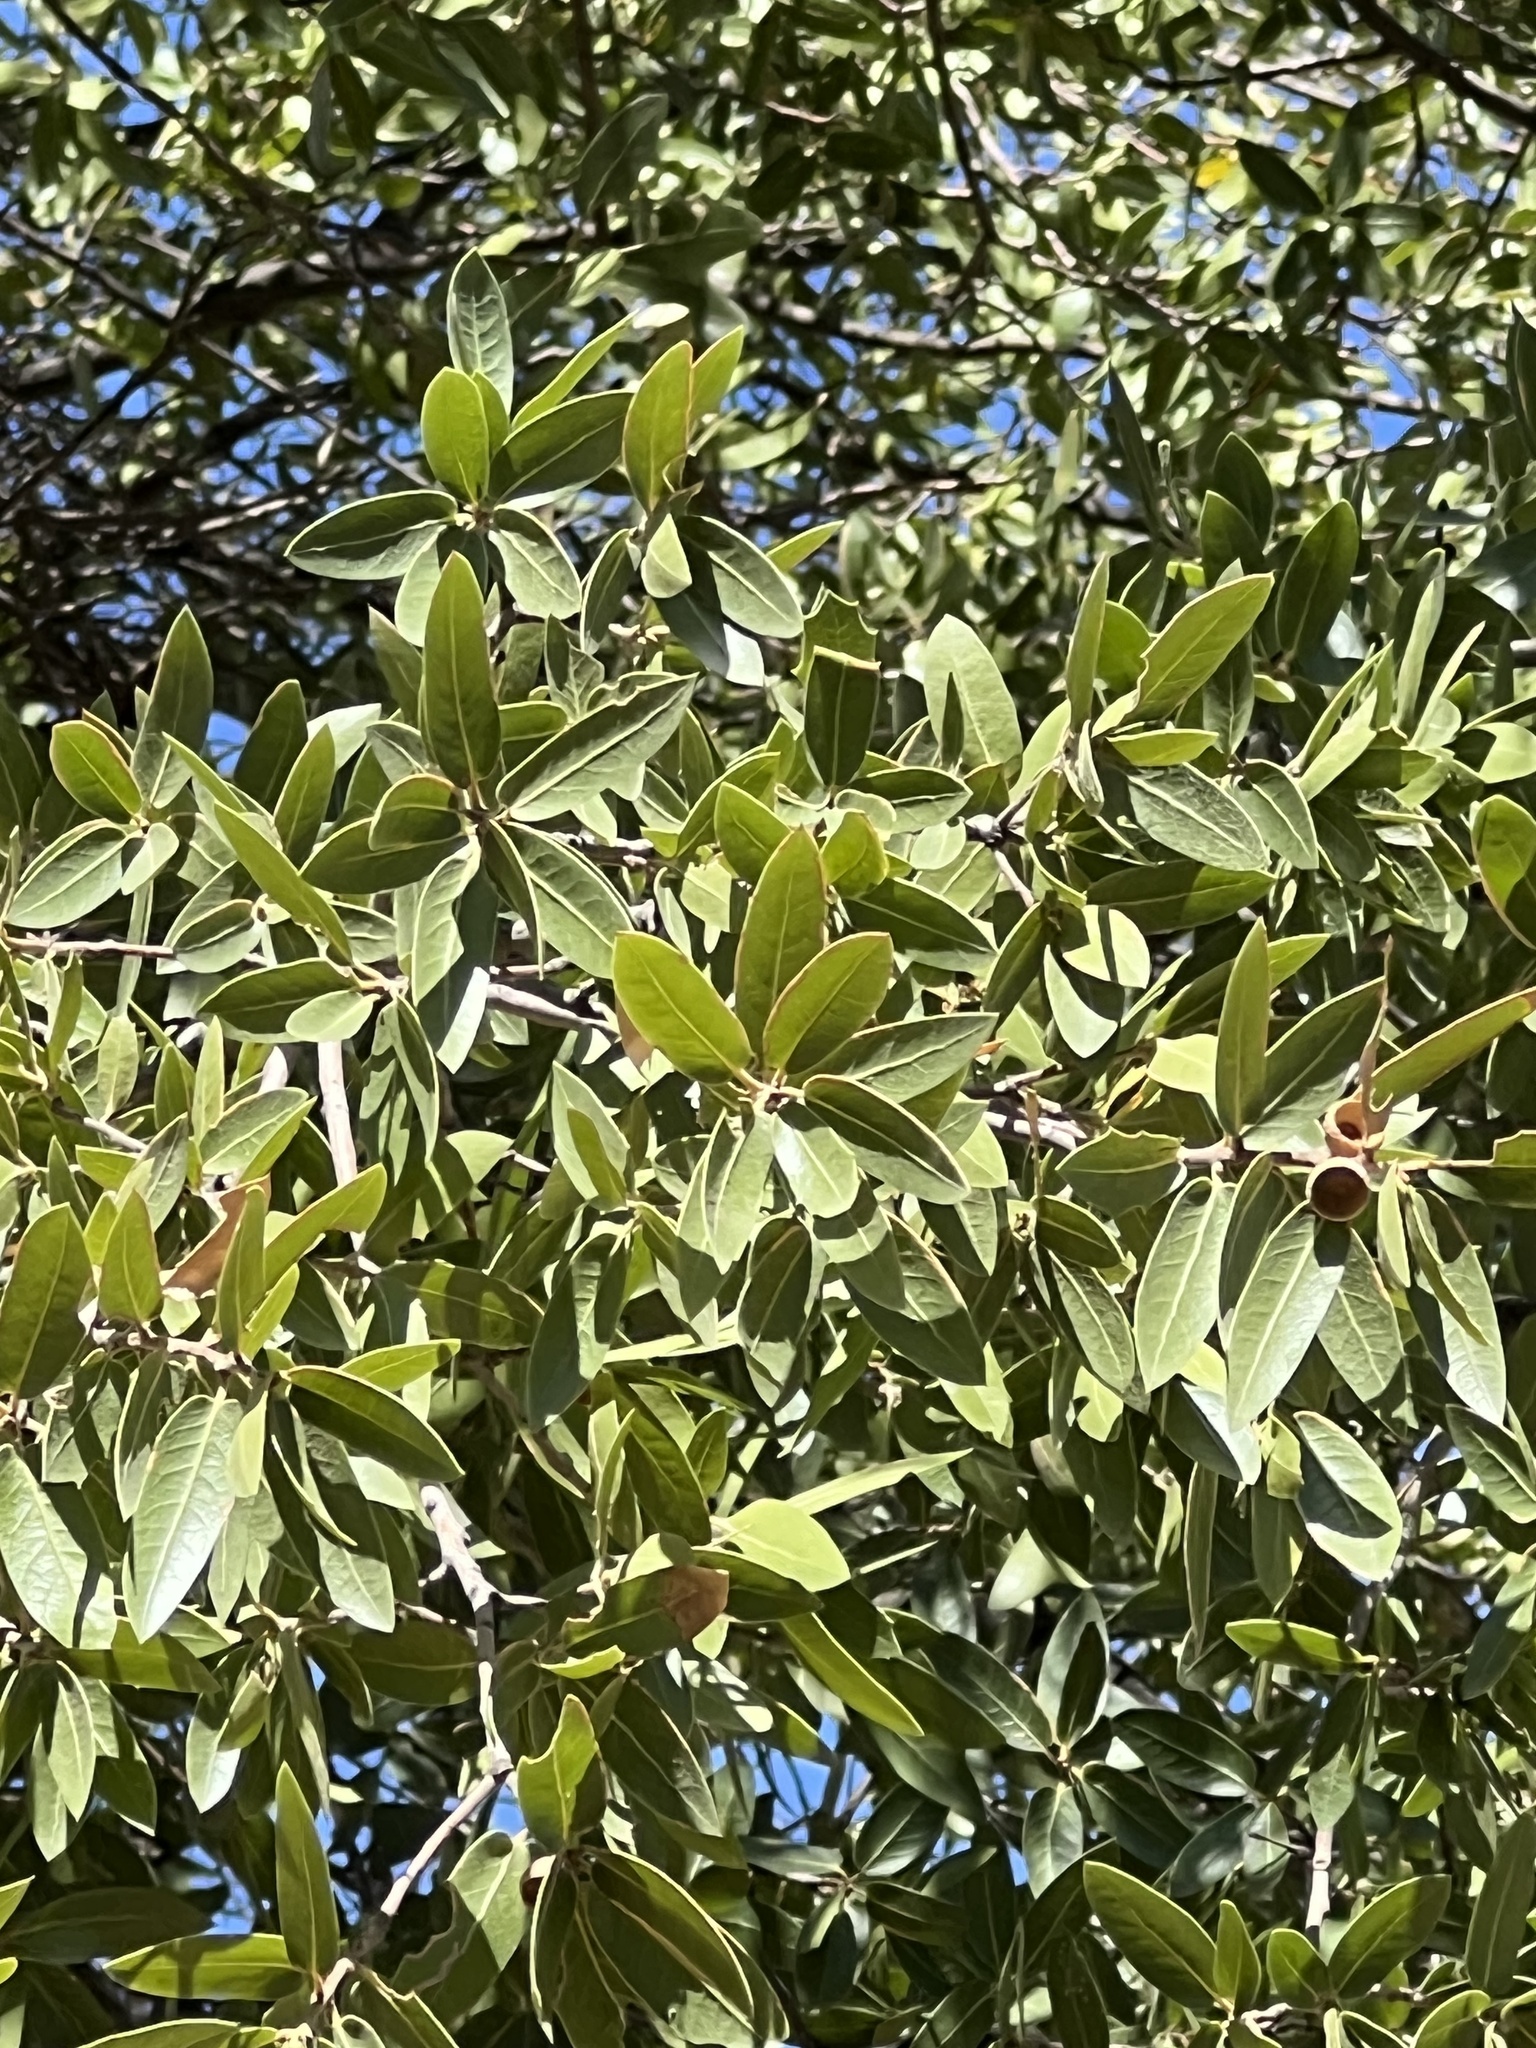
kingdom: Plantae
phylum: Tracheophyta
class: Magnoliopsida
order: Fagales
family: Fagaceae
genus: Quercus
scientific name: Quercus emoryi
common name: Emory oak
